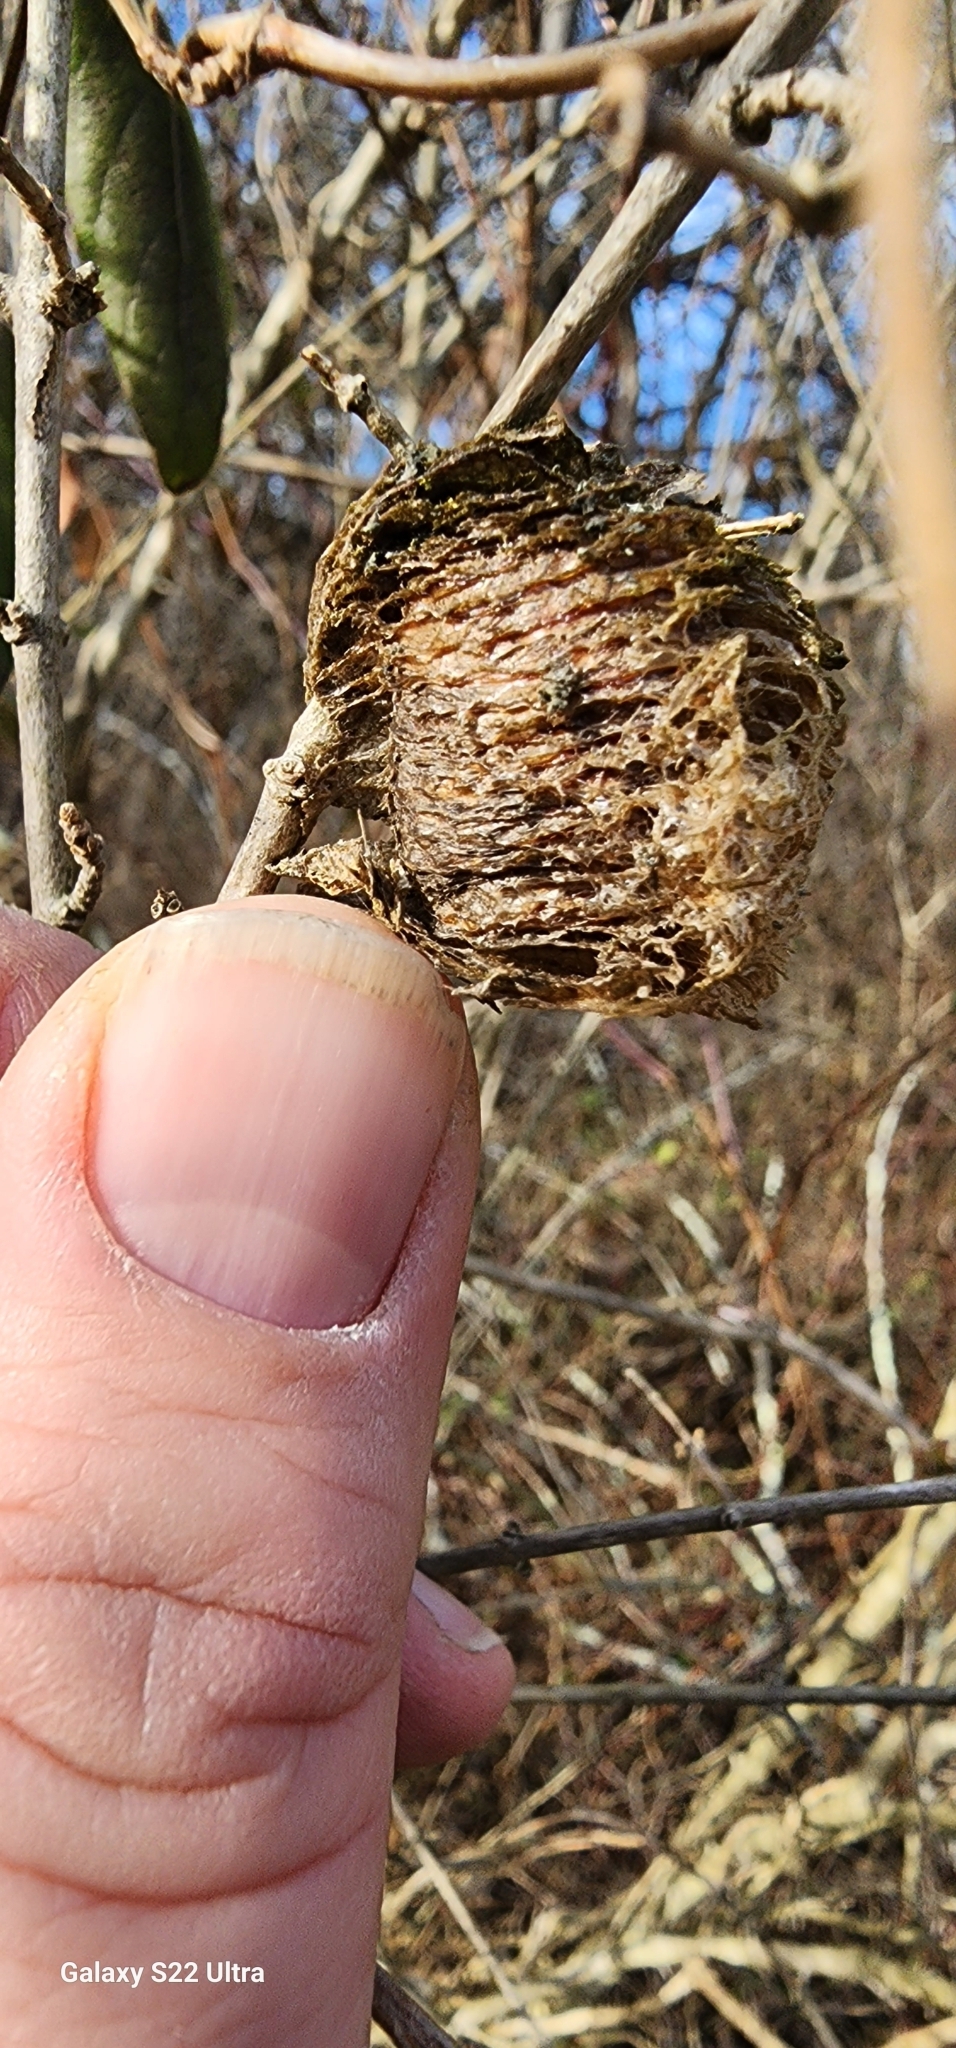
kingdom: Animalia
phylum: Arthropoda
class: Insecta
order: Mantodea
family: Mantidae
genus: Tenodera
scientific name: Tenodera sinensis
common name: Chinese mantis
